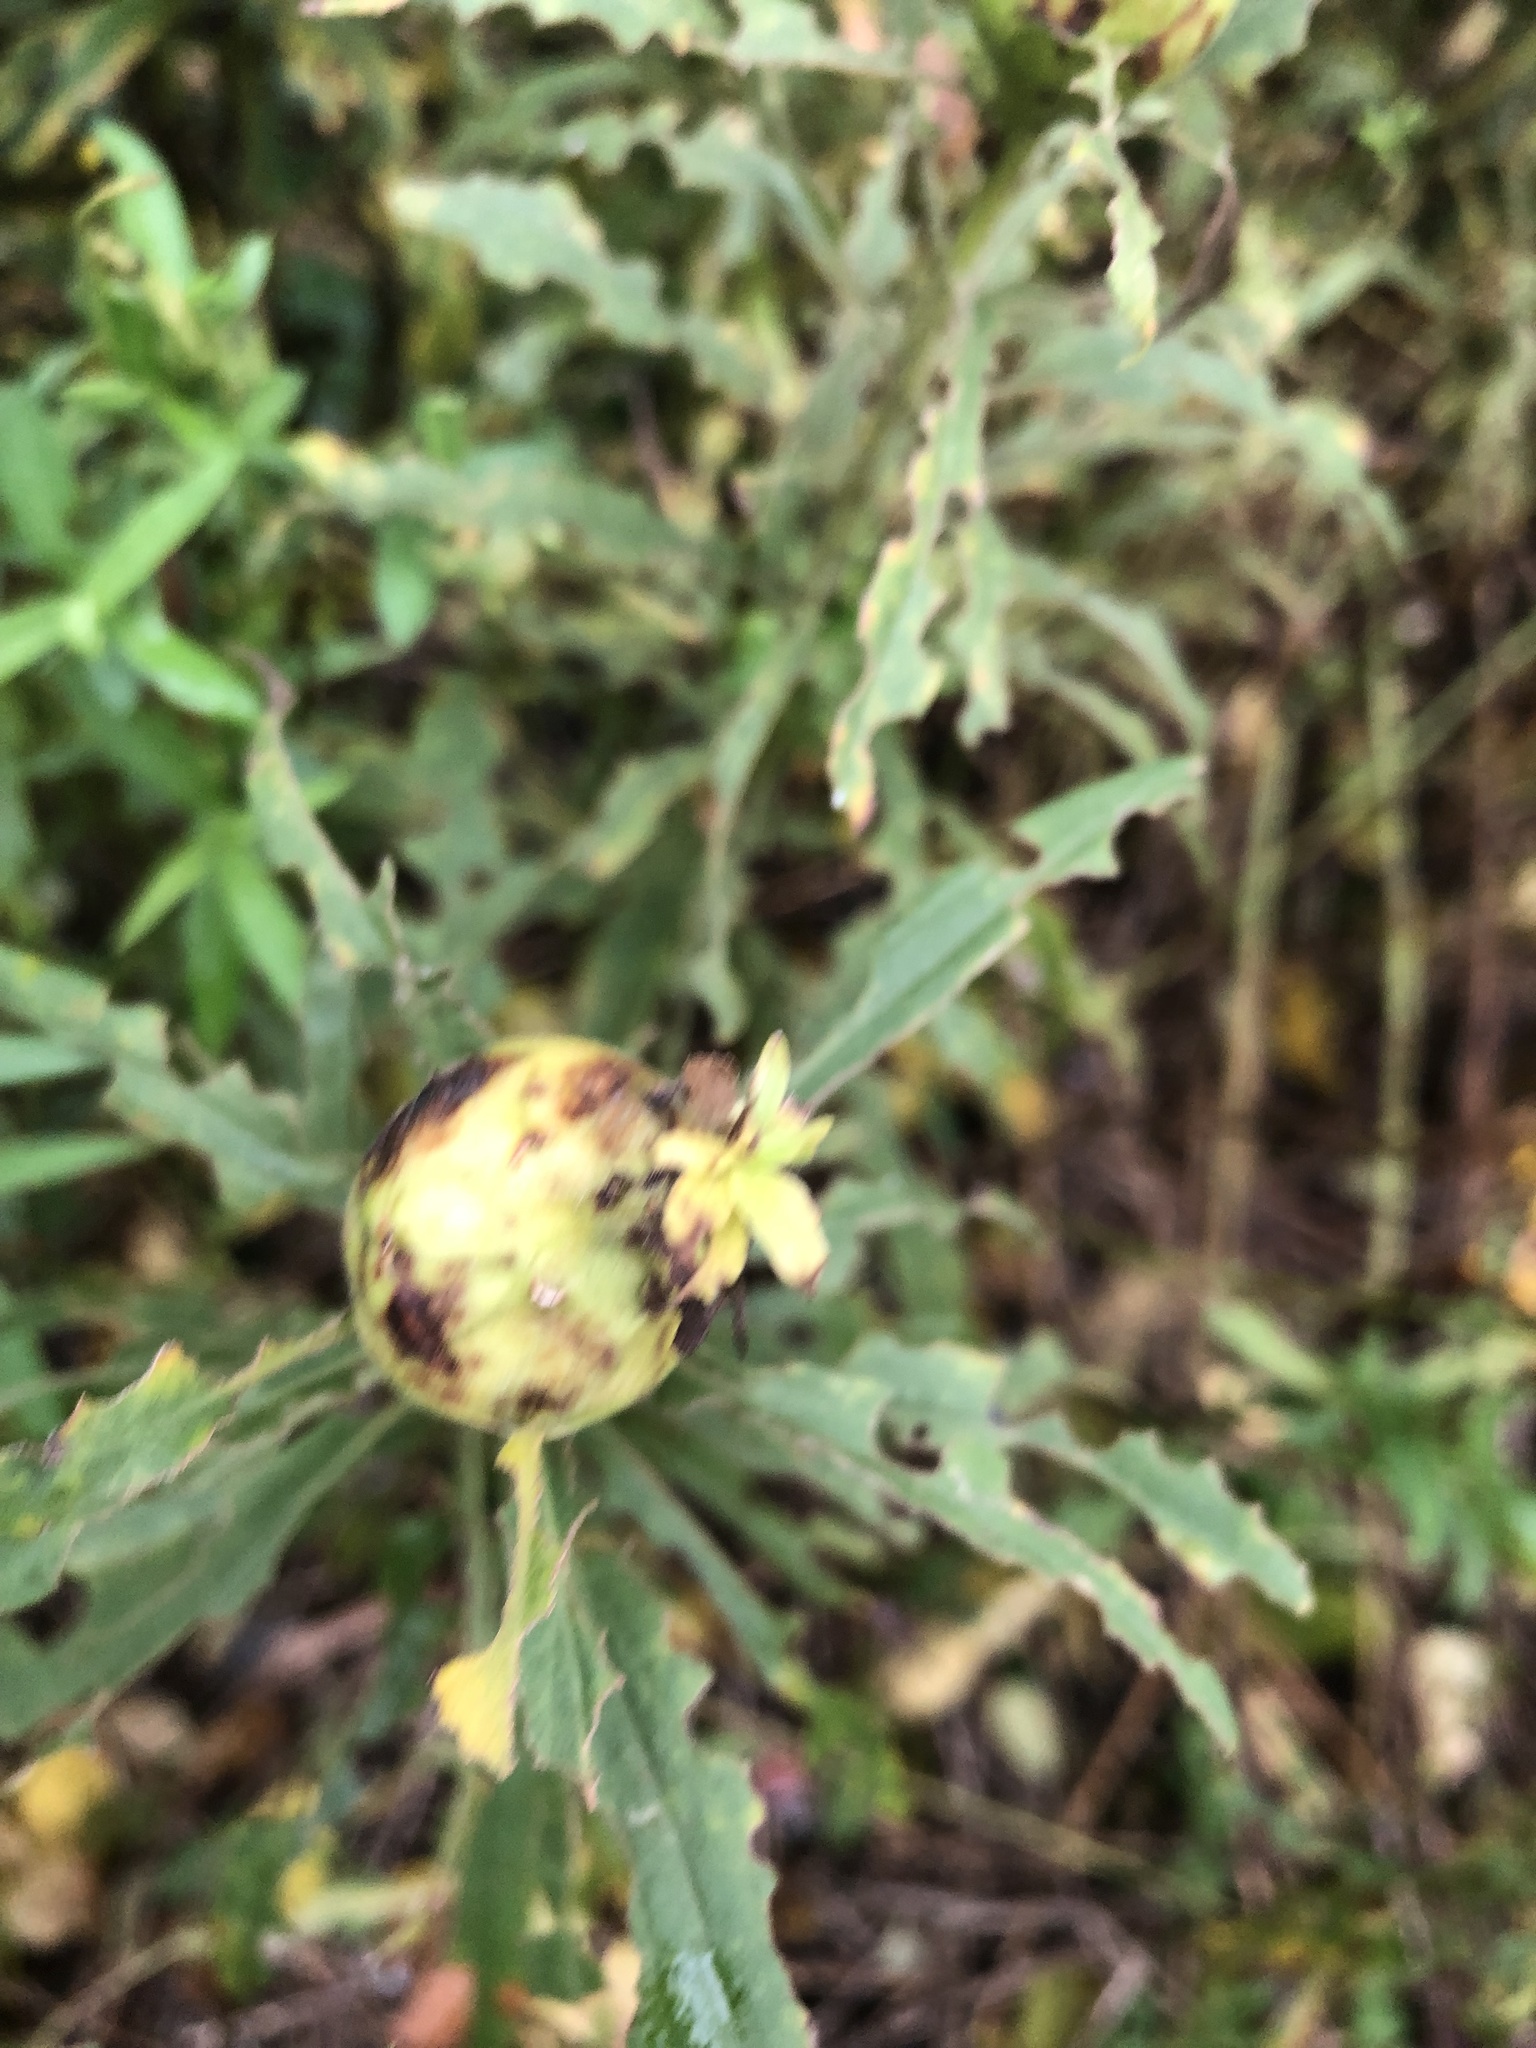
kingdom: Animalia
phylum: Arthropoda
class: Insecta
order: Diptera
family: Tephritidae
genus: Eurosta
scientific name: Eurosta solidaginis
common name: Goldenrod gall fly
